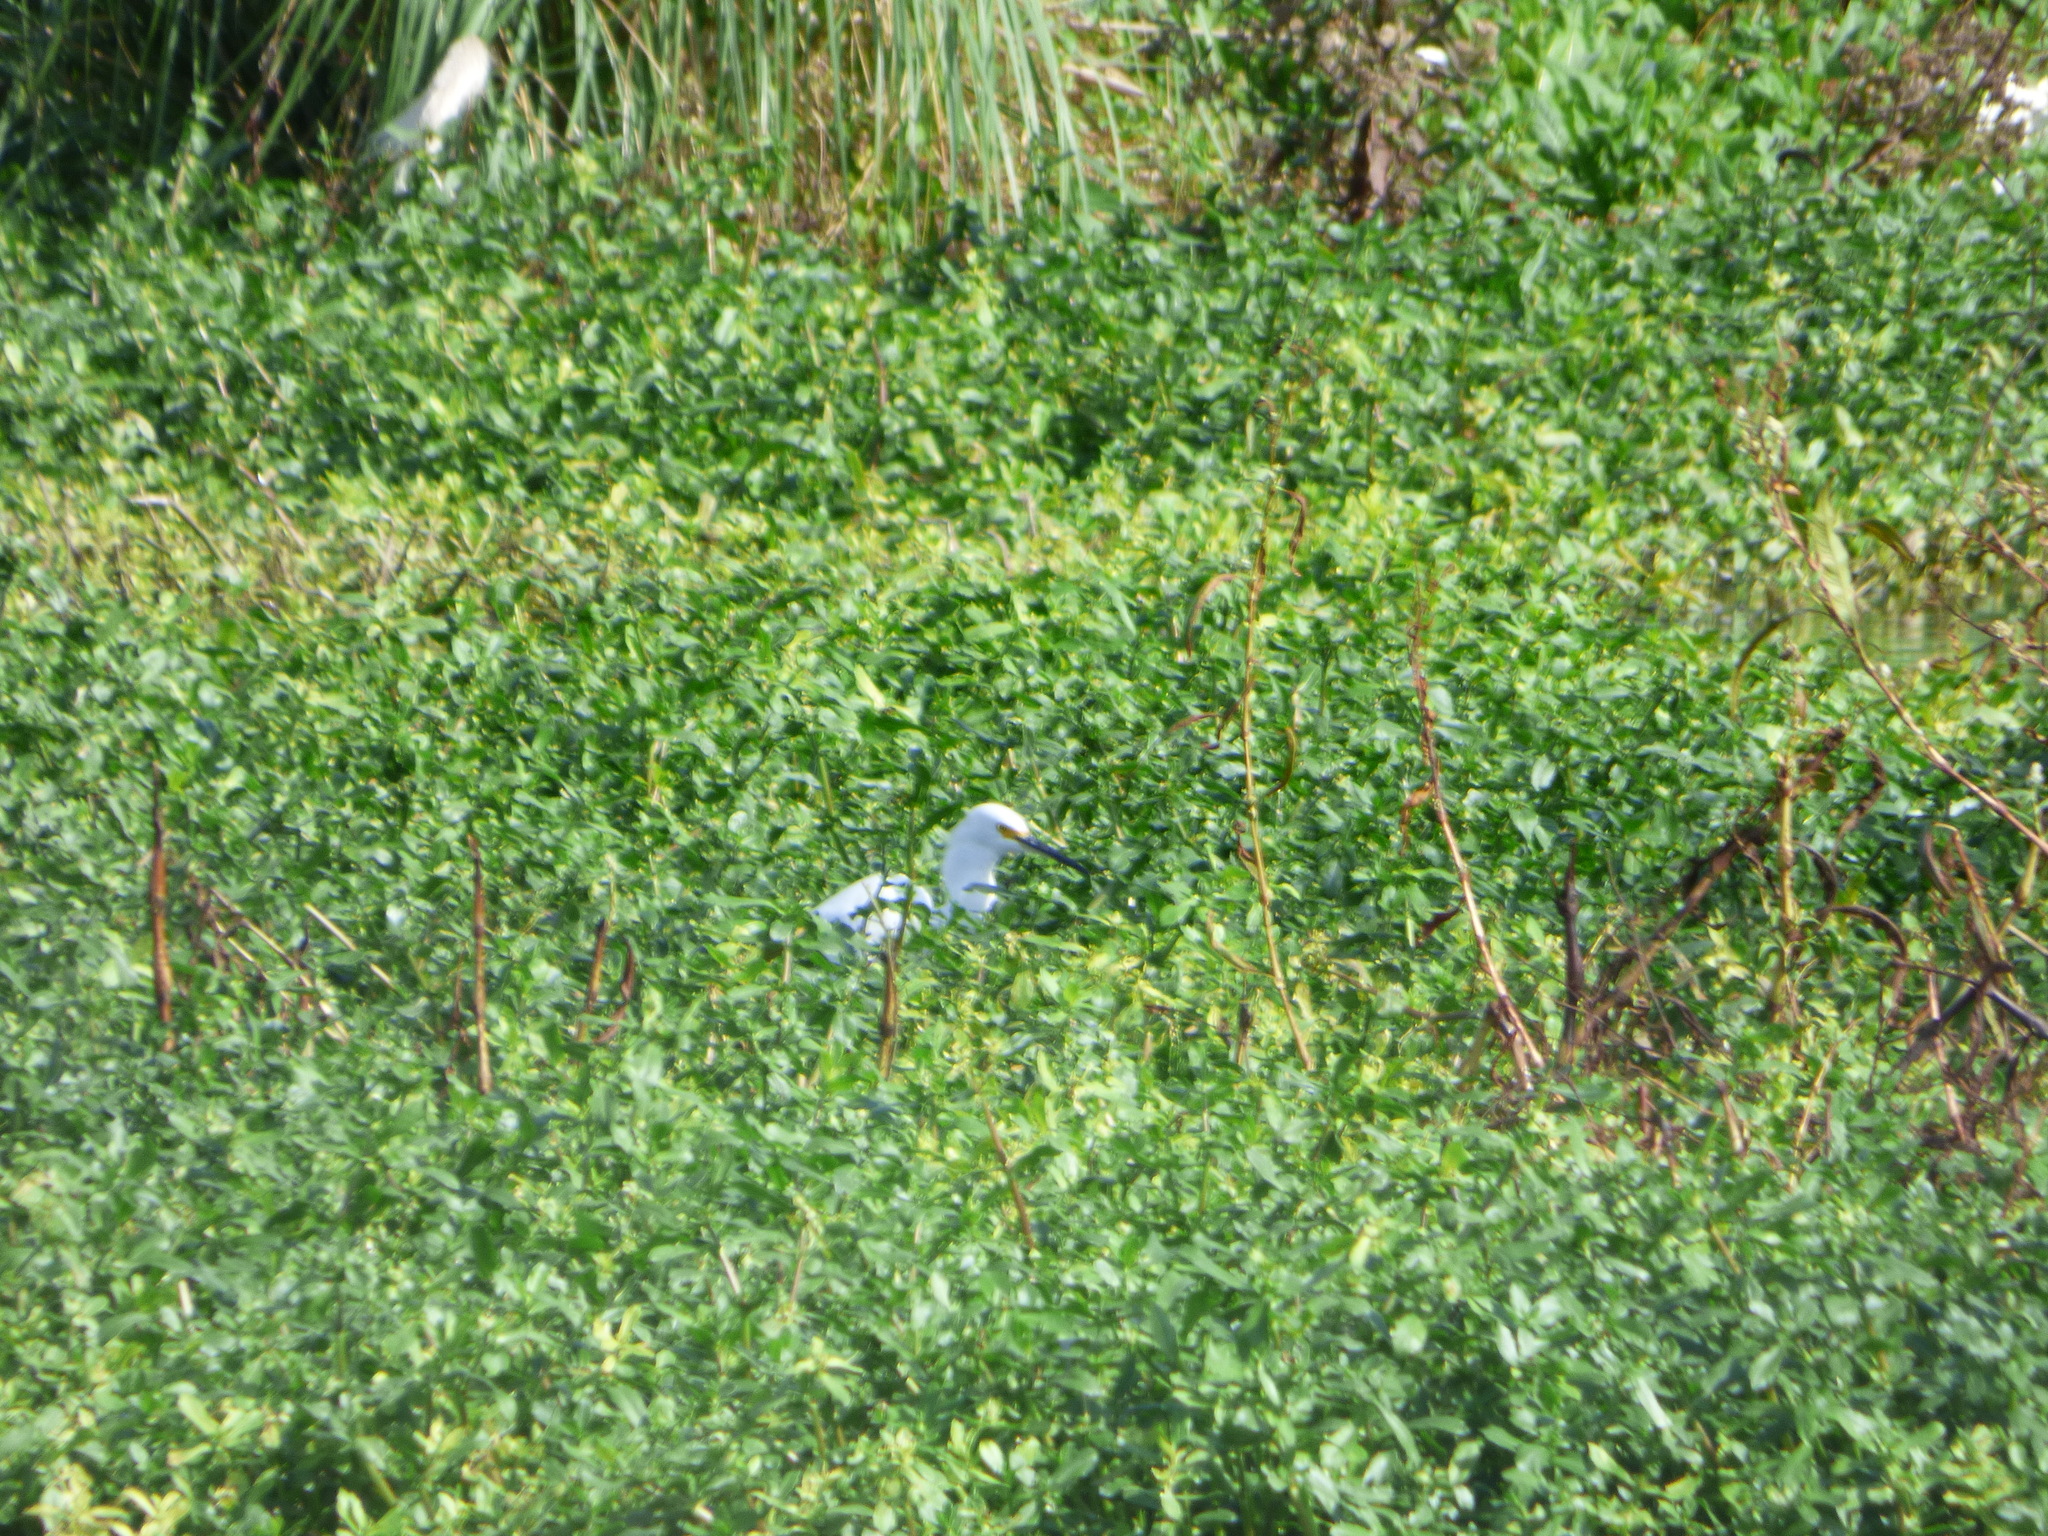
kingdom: Animalia
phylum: Chordata
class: Aves
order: Pelecaniformes
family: Ardeidae
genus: Egretta
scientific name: Egretta thula
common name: Snowy egret
